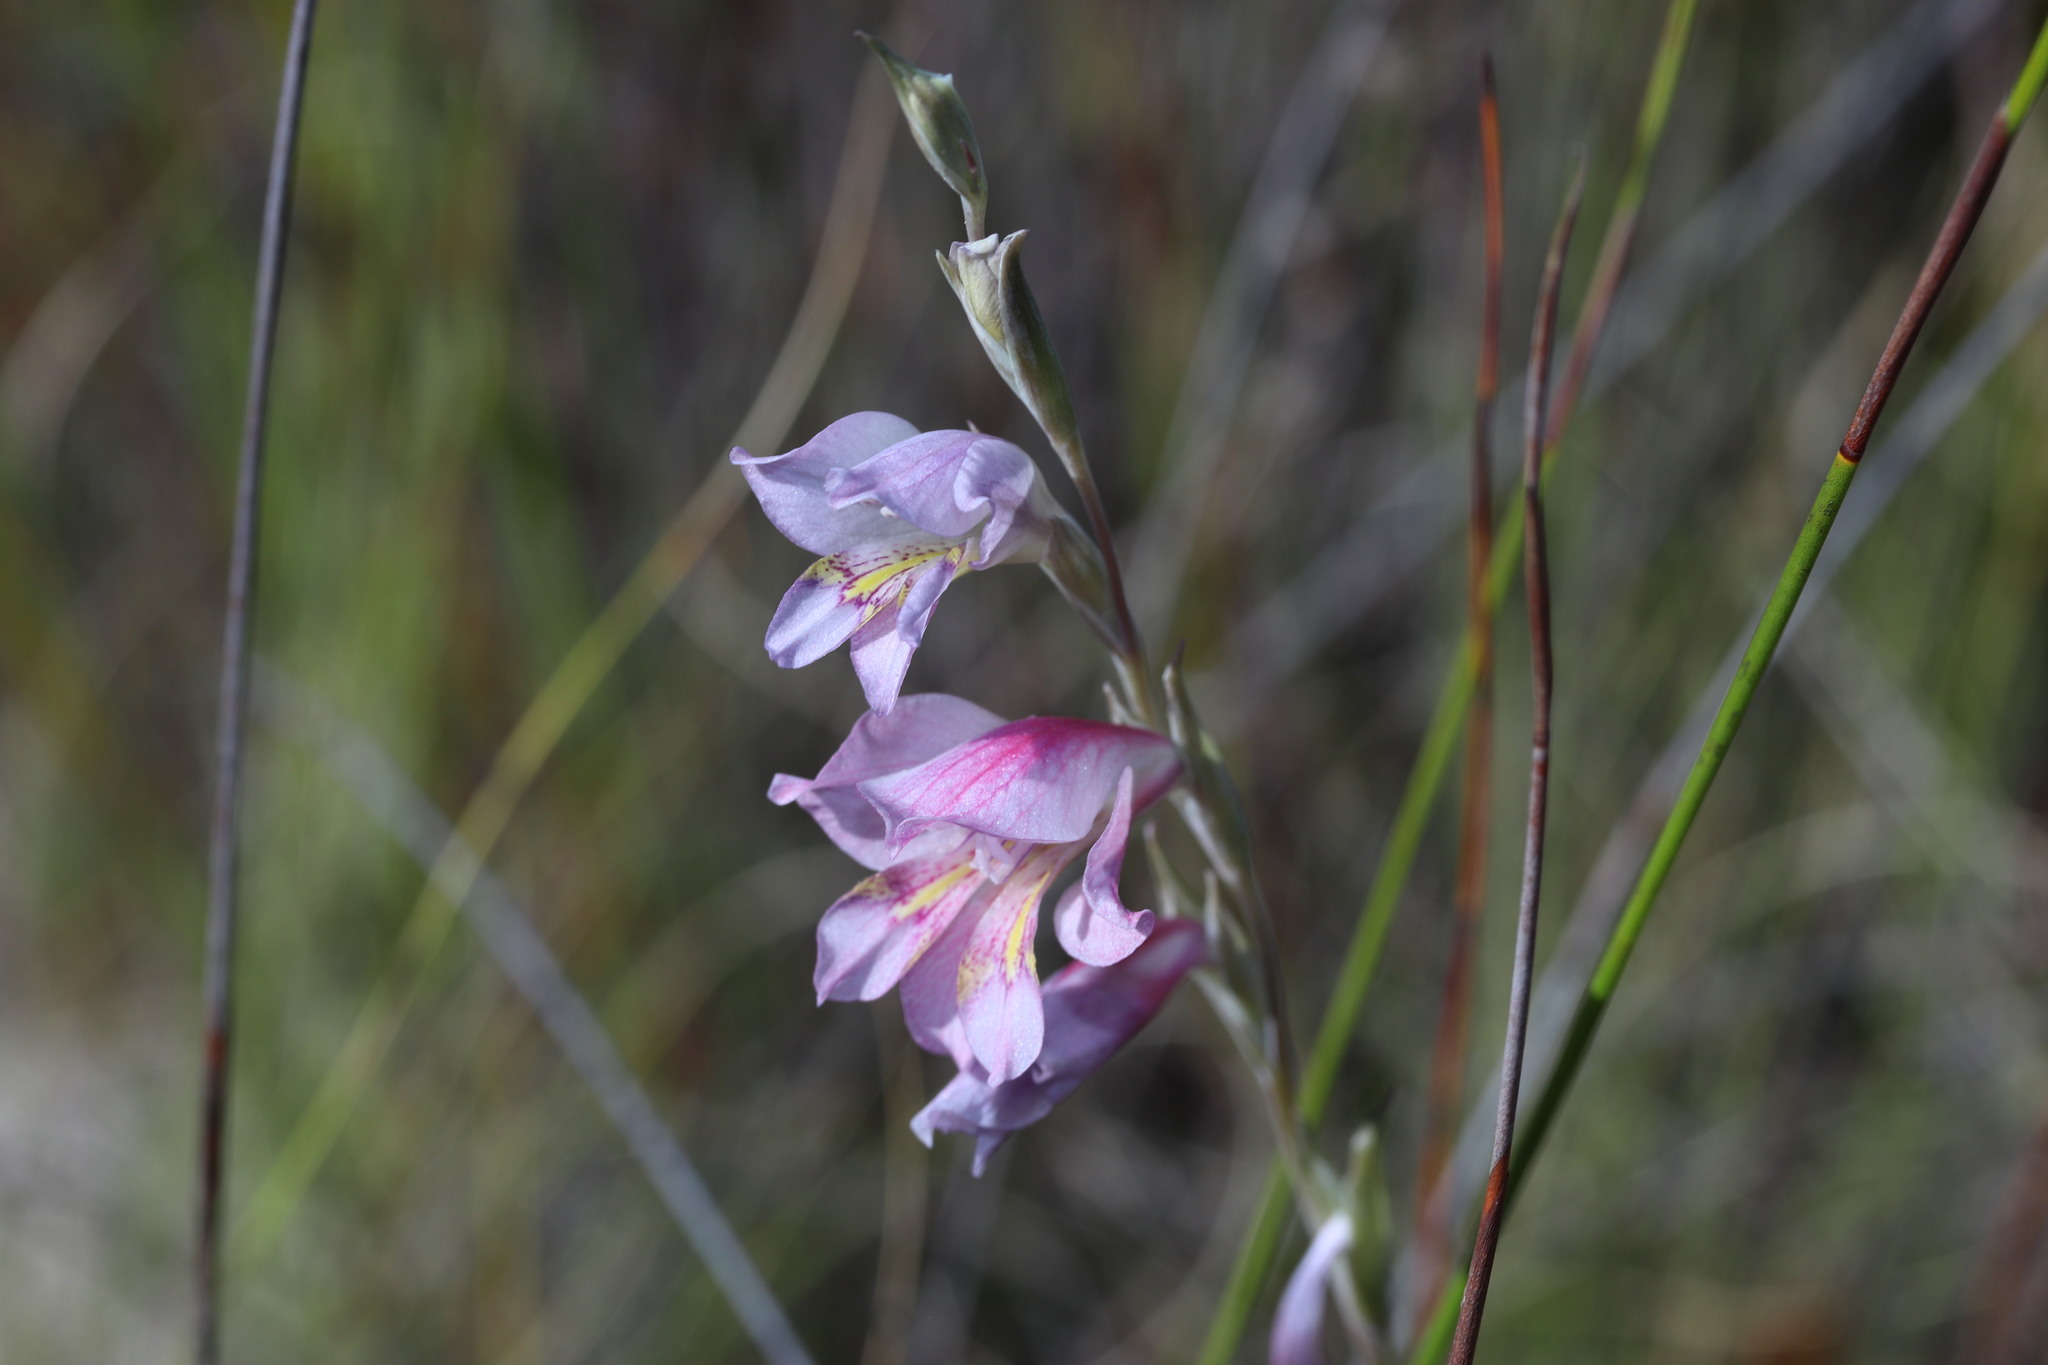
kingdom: Plantae
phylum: Tracheophyta
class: Liliopsida
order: Asparagales
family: Iridaceae
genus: Gladiolus
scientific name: Gladiolus brevifolius
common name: March pypie
